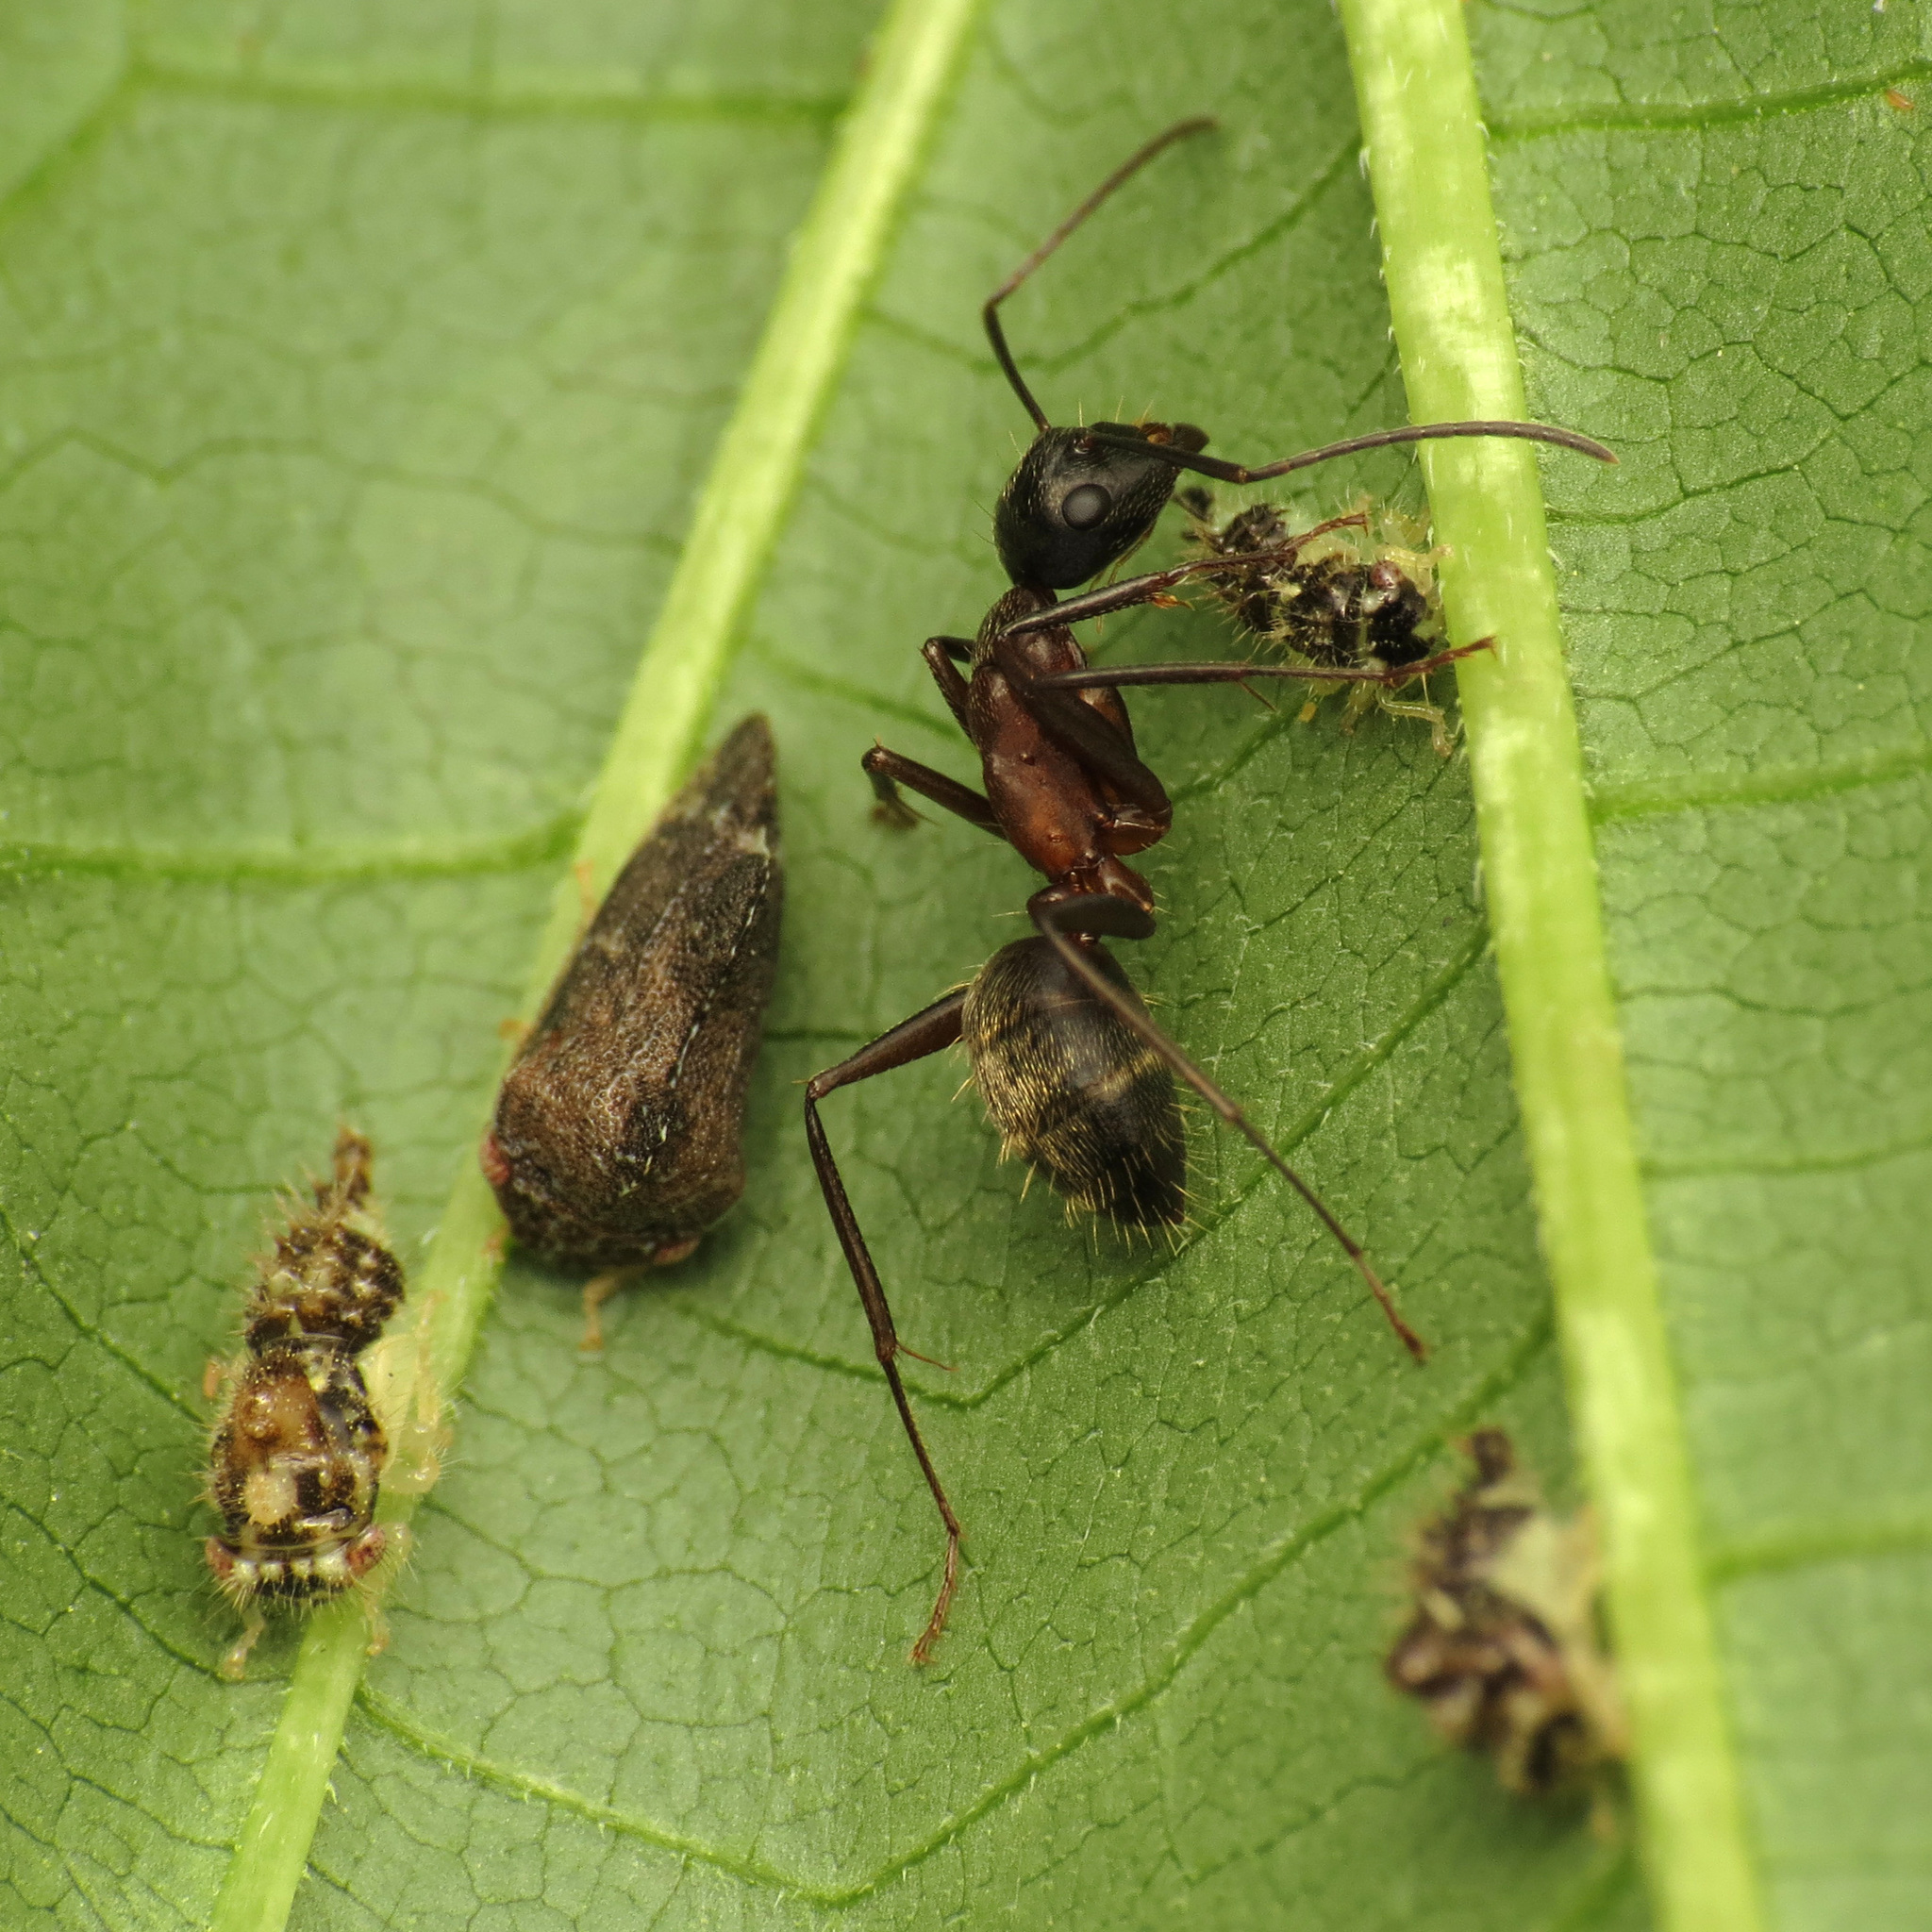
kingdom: Animalia
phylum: Arthropoda
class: Insecta
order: Hymenoptera
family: Formicidae
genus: Camponotus
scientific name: Camponotus chromaiodes
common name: Red carpenter ant
